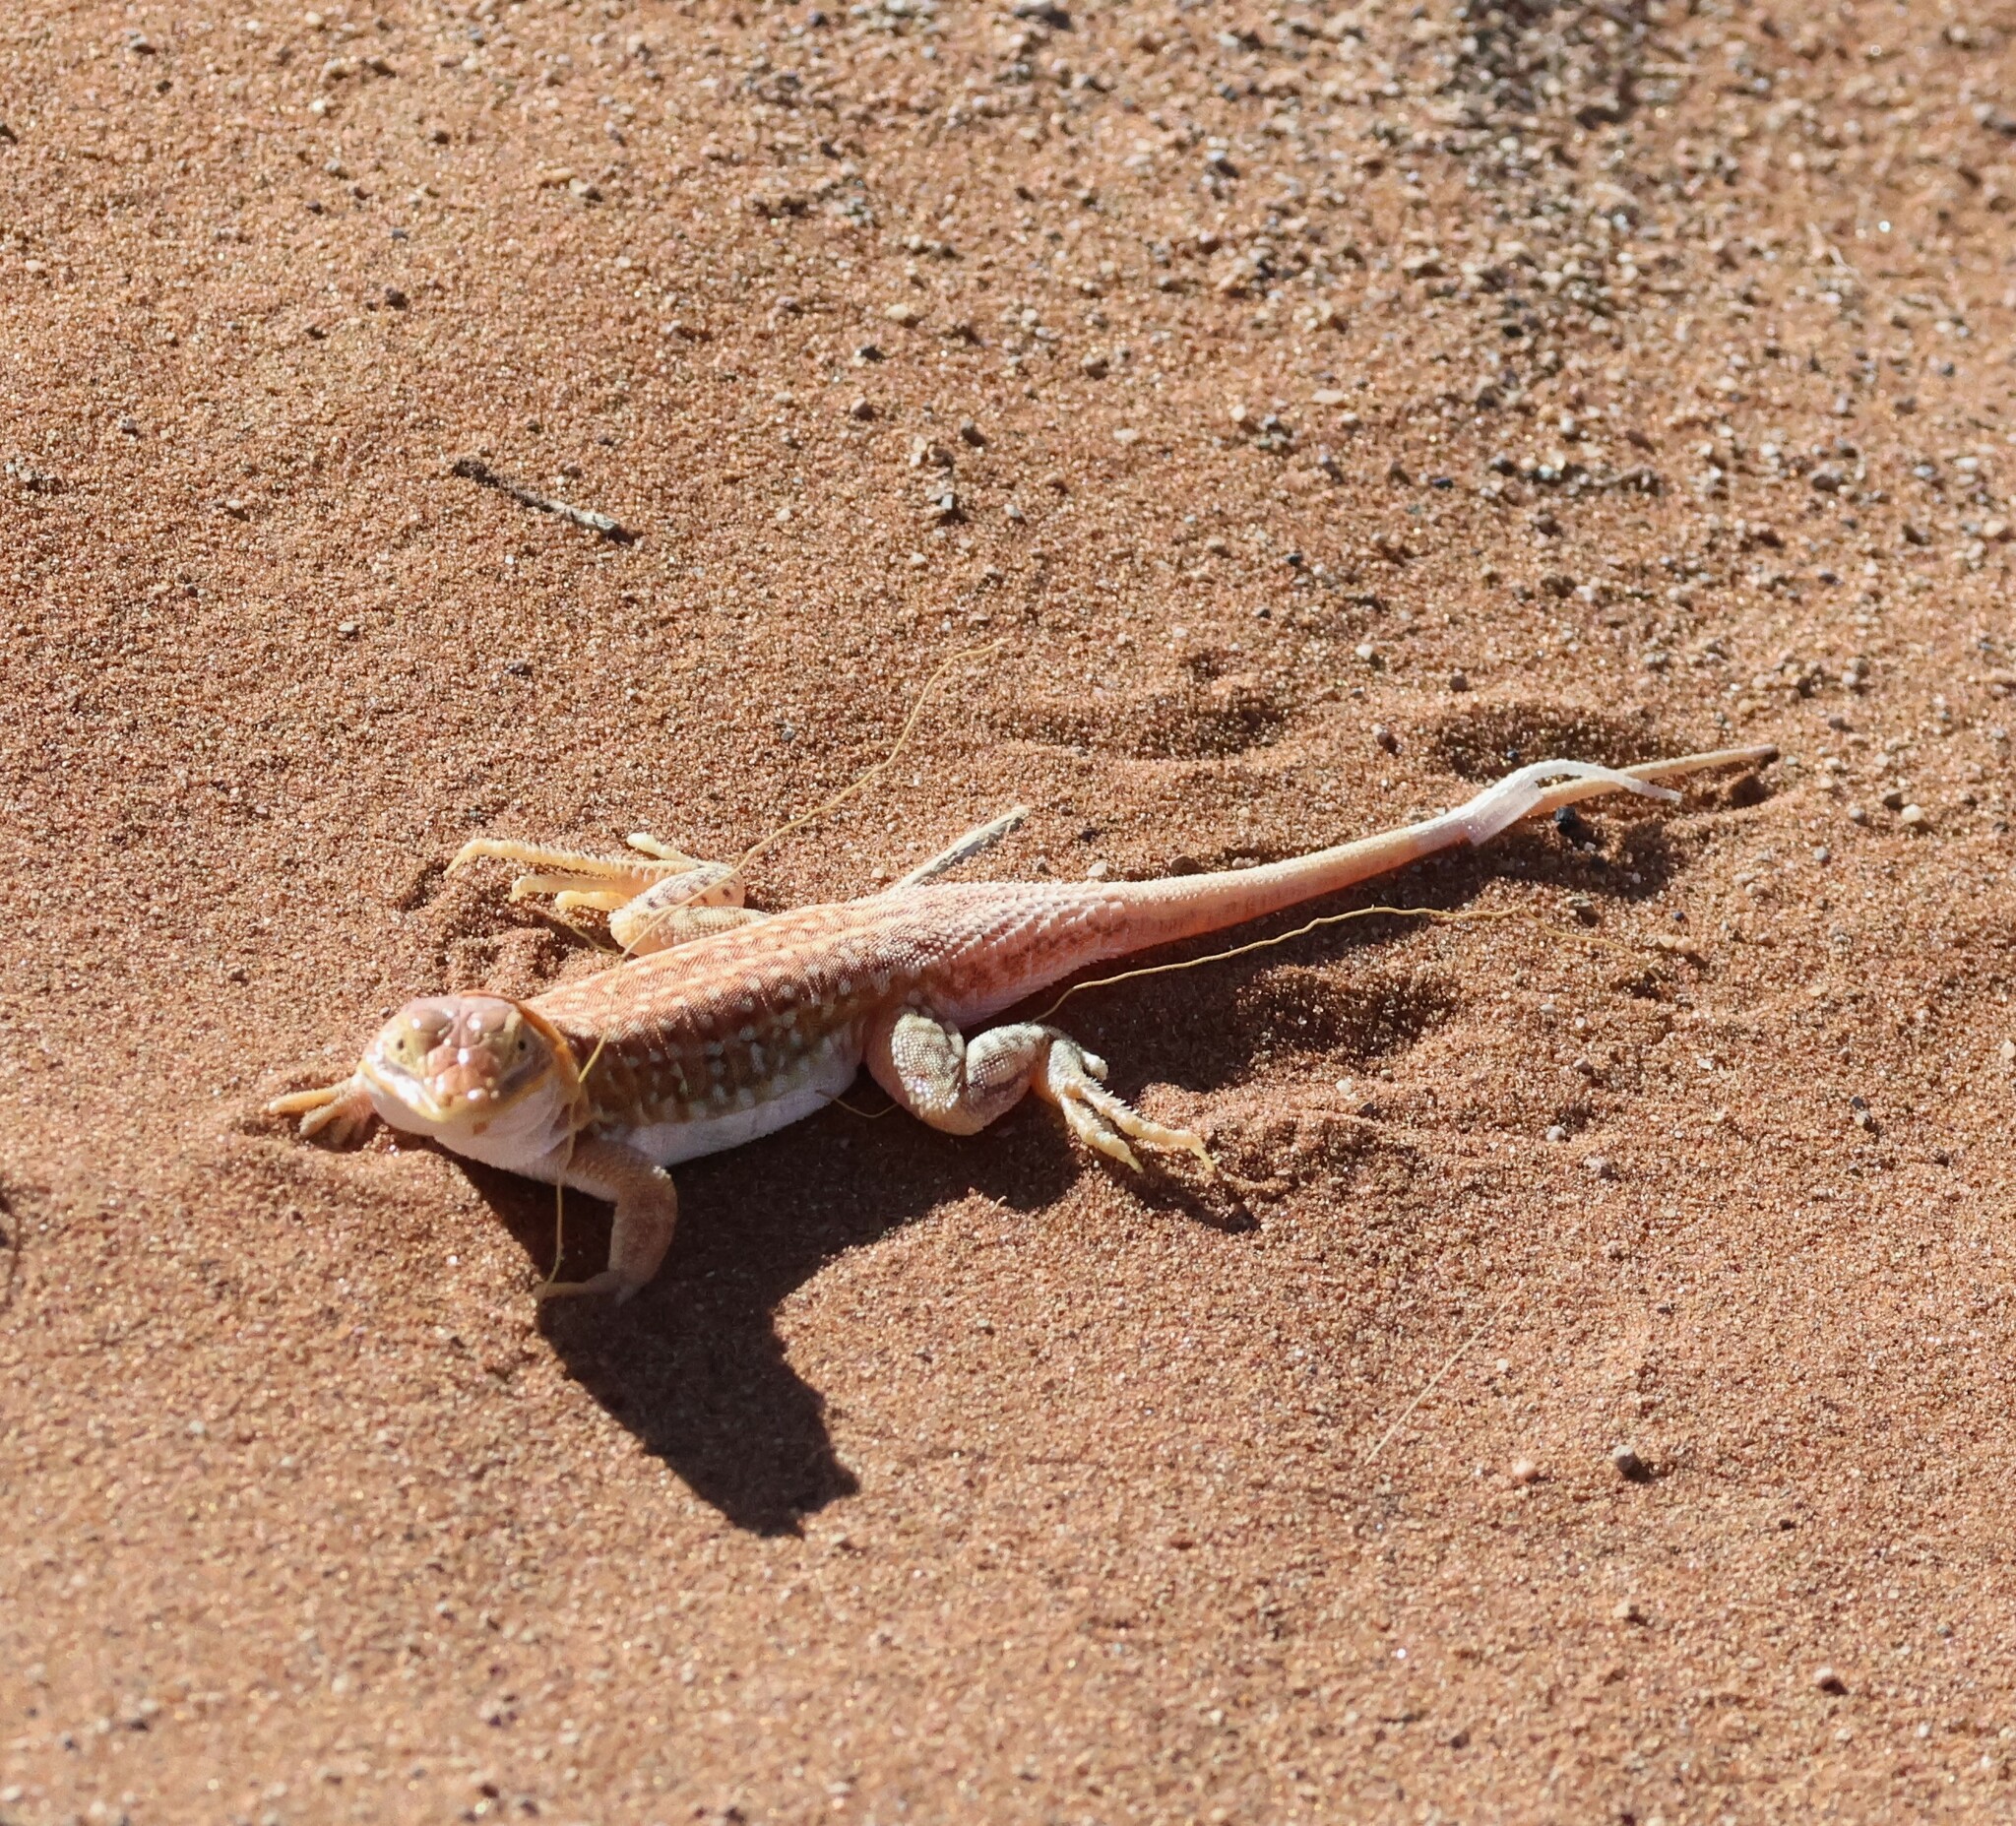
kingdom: Animalia
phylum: Chordata
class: Squamata
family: Lacertidae
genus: Meroles
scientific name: Meroles cuneirostris
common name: Wedge-snouted desert lizard
